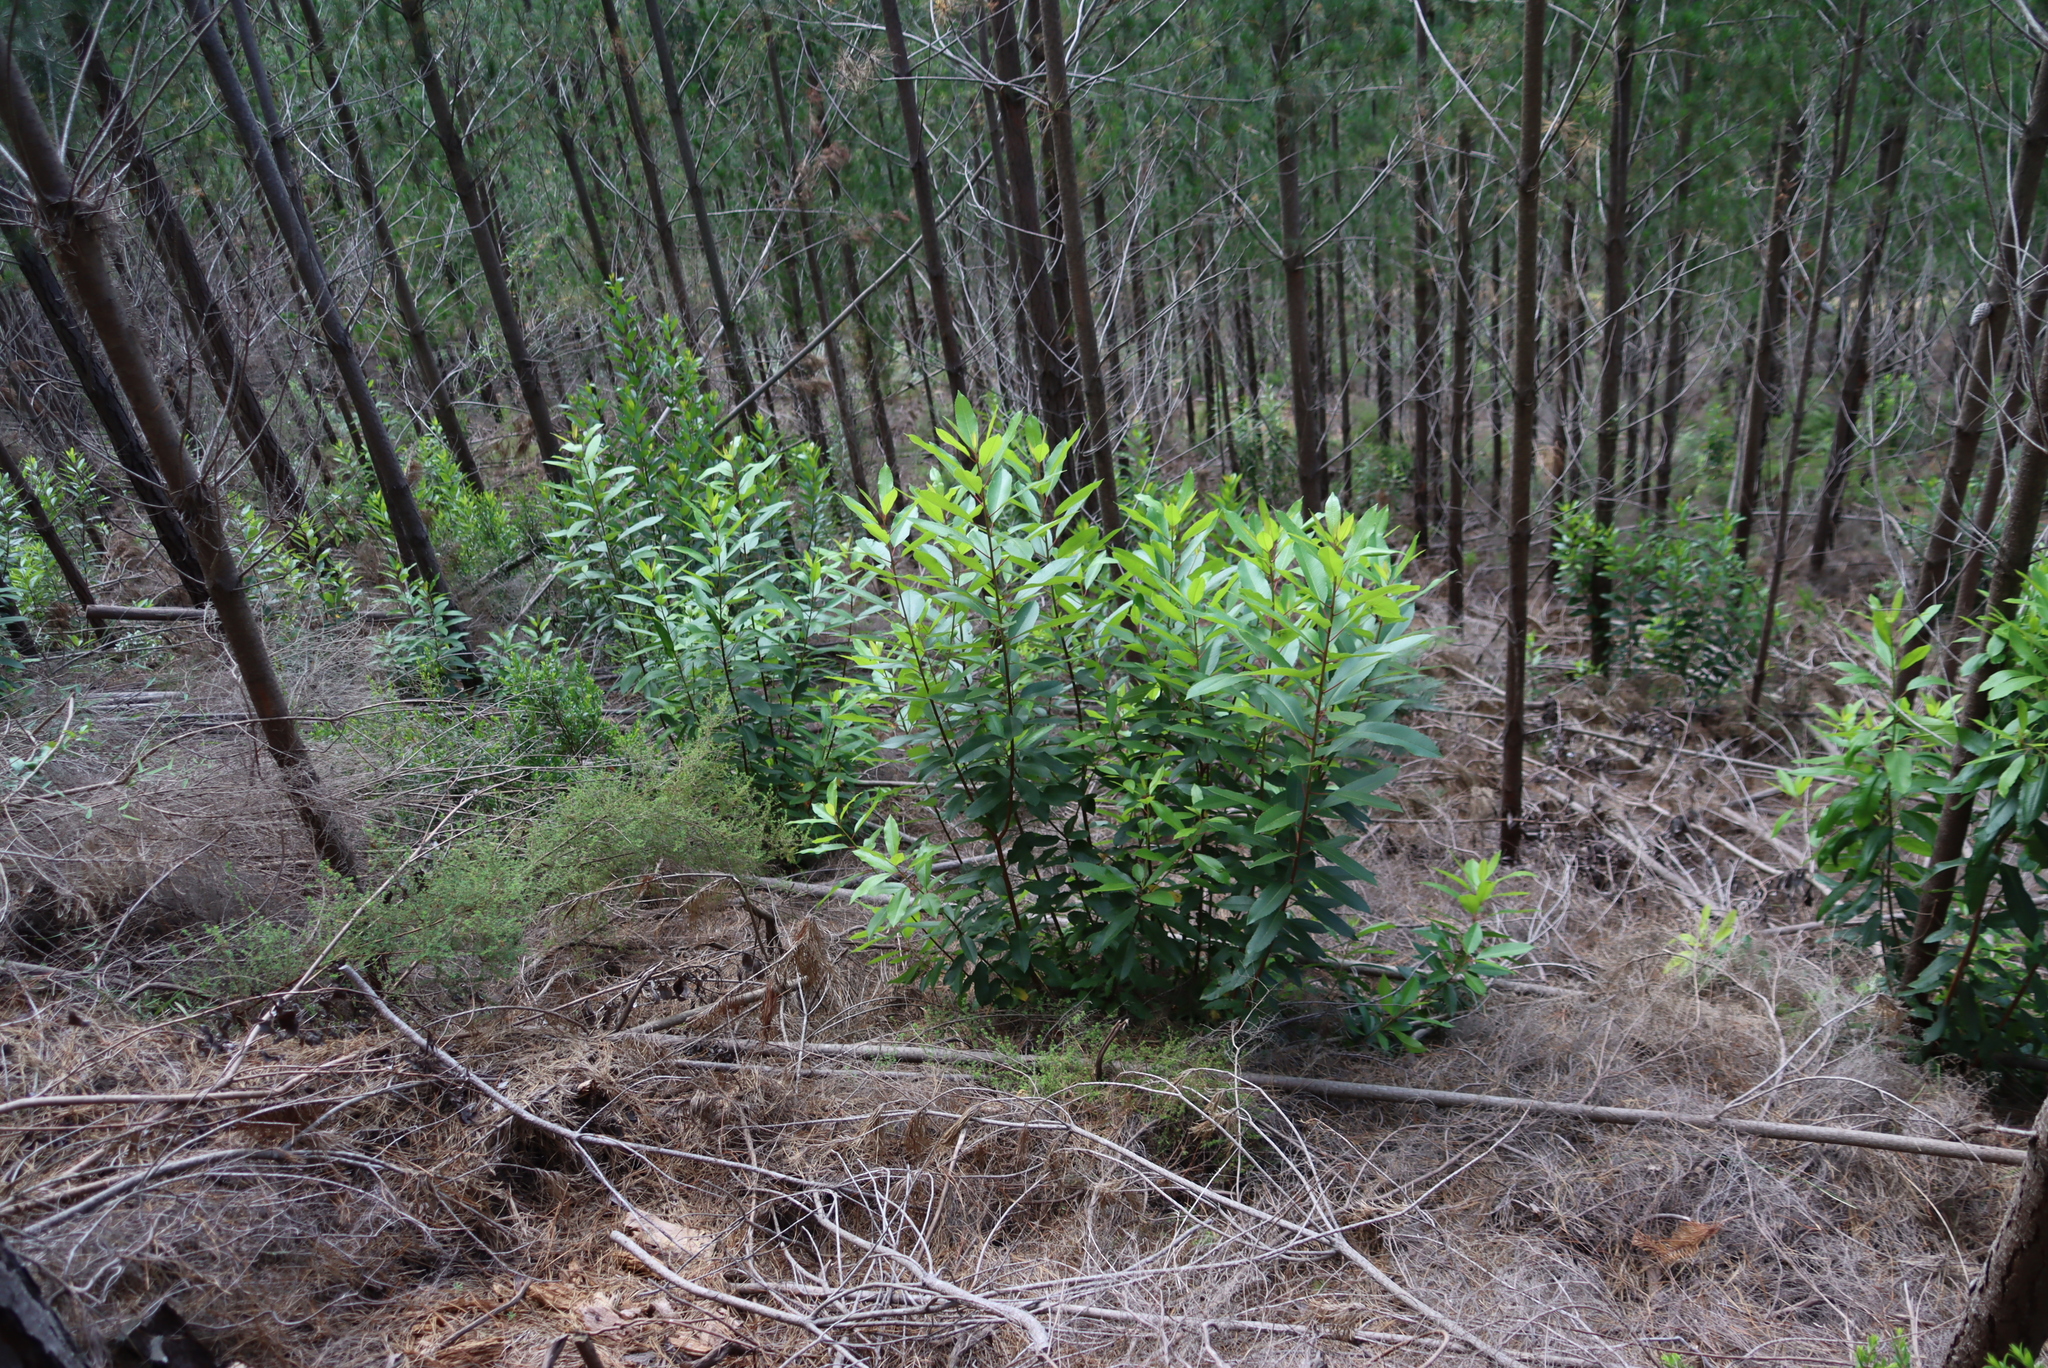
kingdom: Plantae
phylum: Tracheophyta
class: Magnoliopsida
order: Sapindales
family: Anacardiaceae
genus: Laurophyllus
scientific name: Laurophyllus capensis
